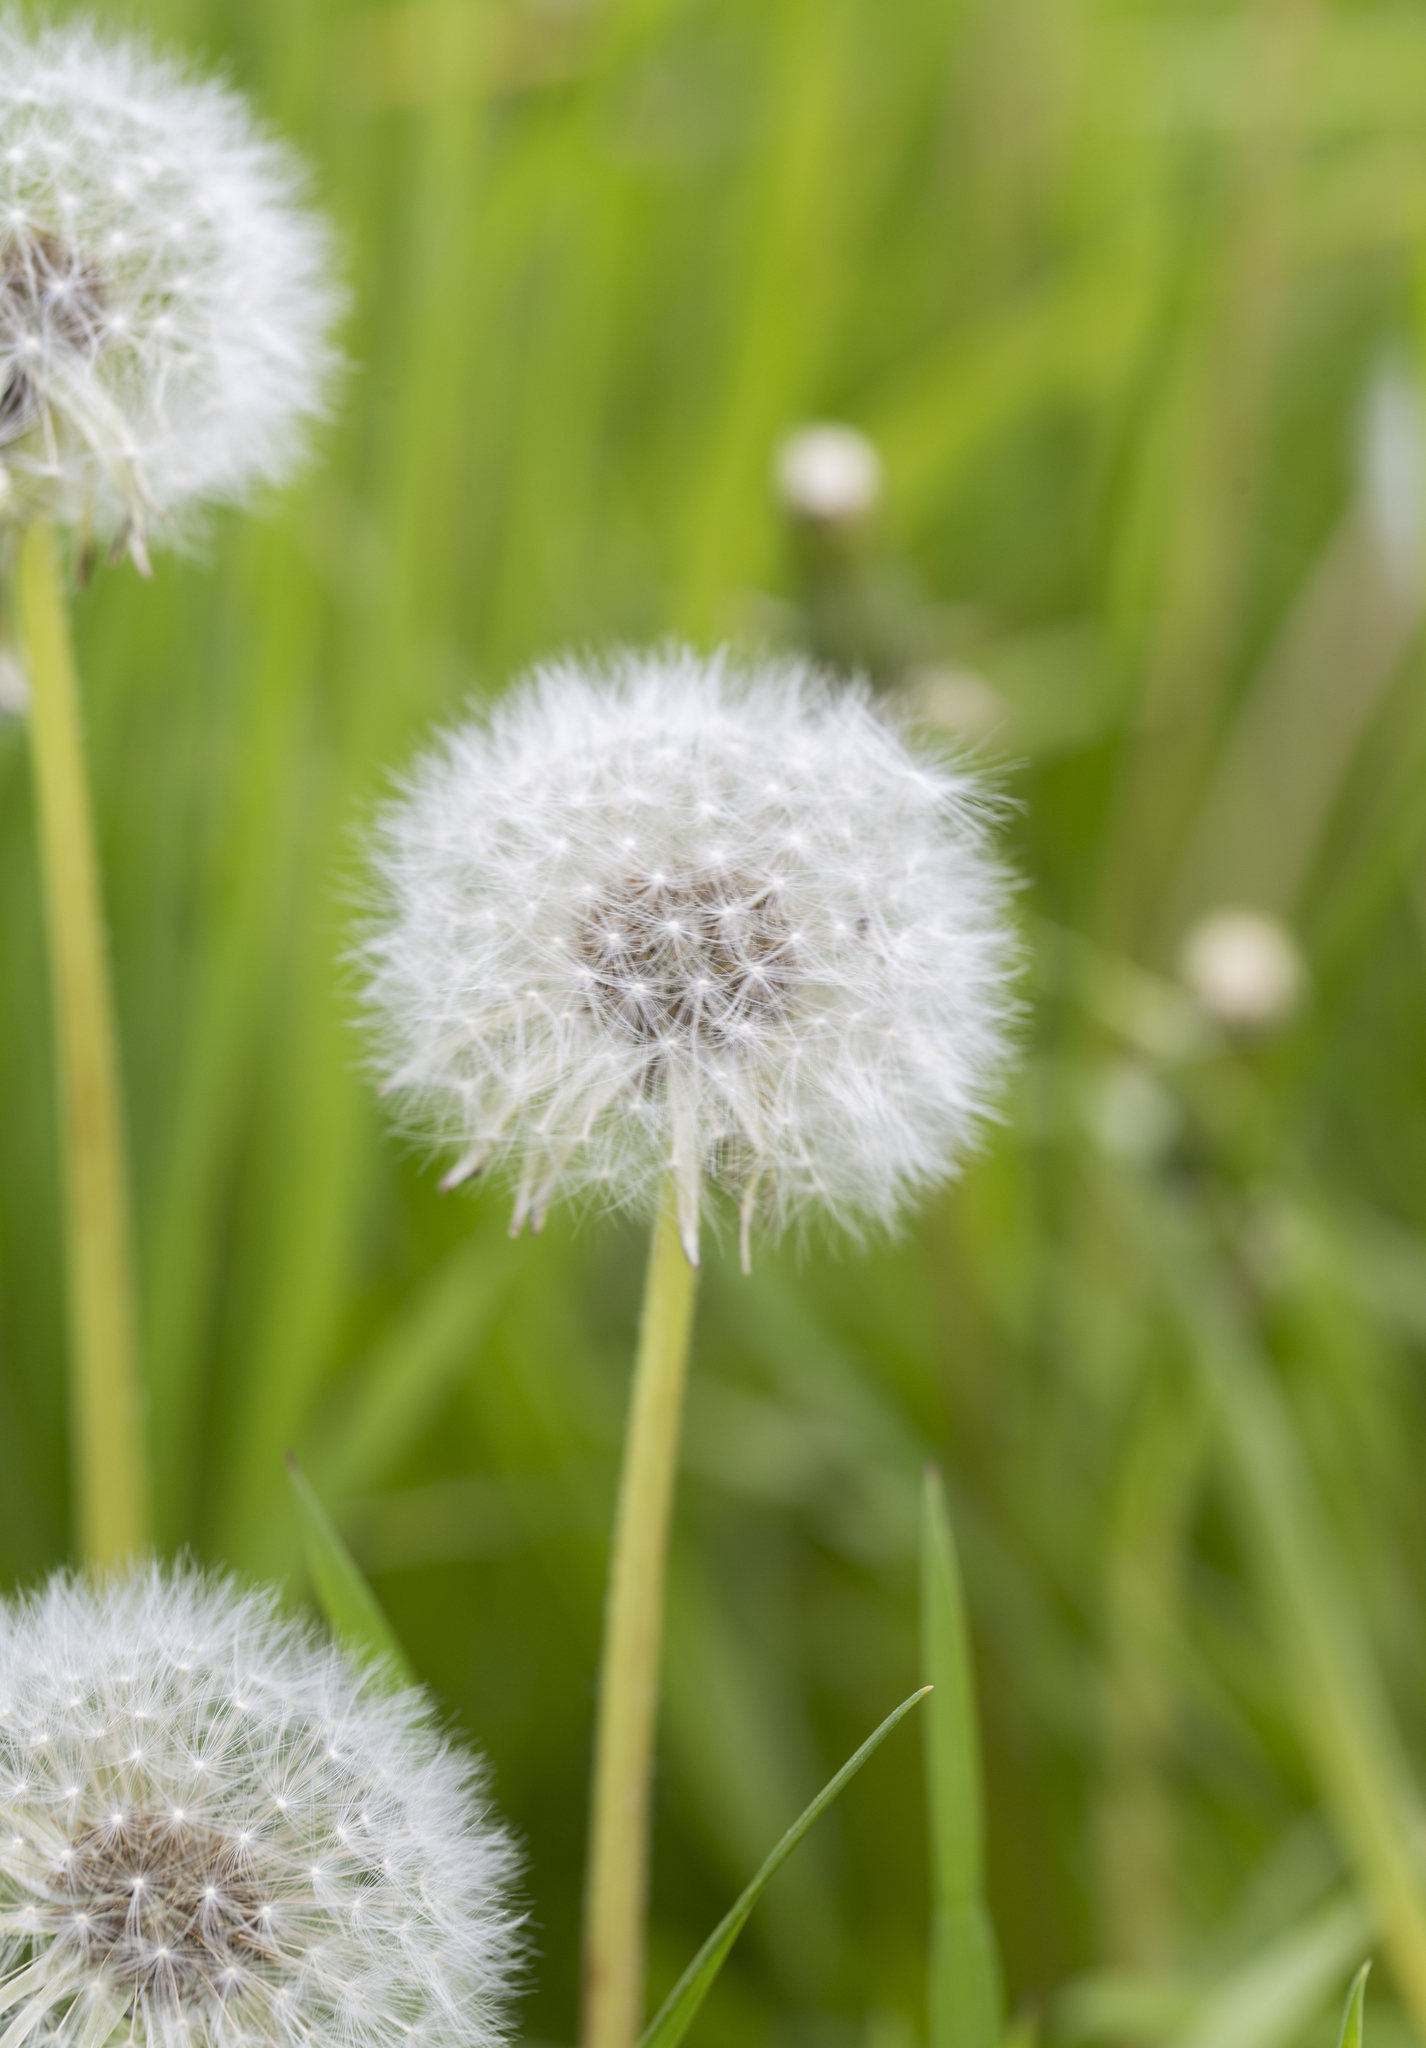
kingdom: Plantae
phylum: Tracheophyta
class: Magnoliopsida
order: Asterales
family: Asteraceae
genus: Taraxacum
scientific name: Taraxacum officinale
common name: Common dandelion
